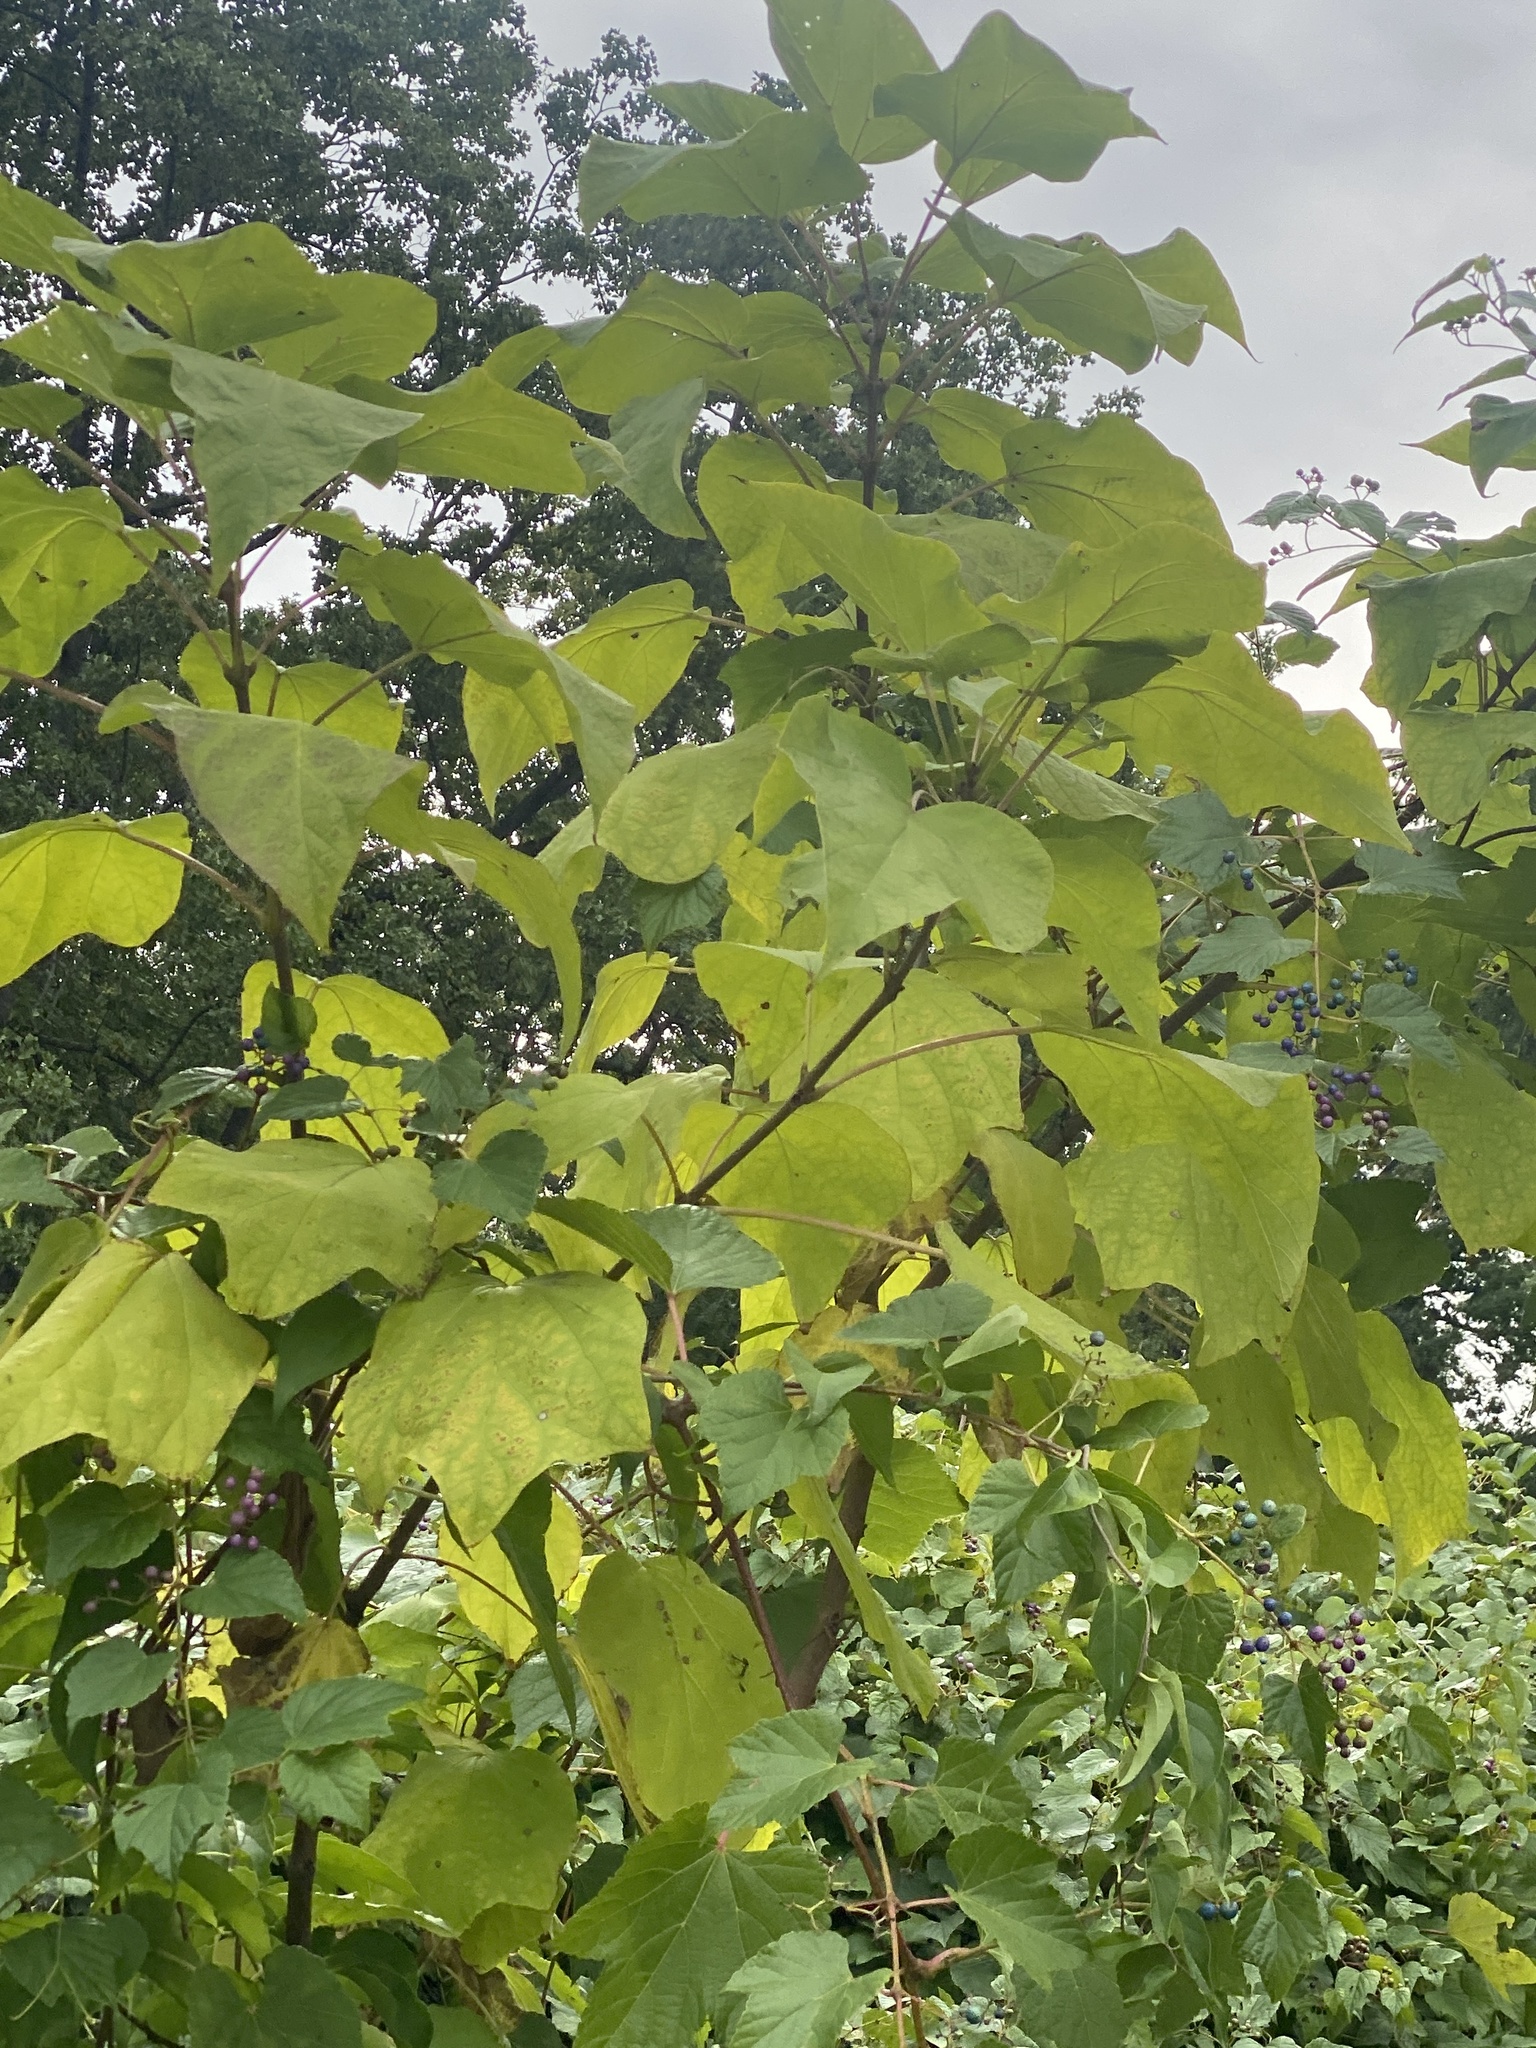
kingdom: Plantae
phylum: Tracheophyta
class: Magnoliopsida
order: Lamiales
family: Paulowniaceae
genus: Paulownia
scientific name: Paulownia tomentosa
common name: Foxglove-tree
